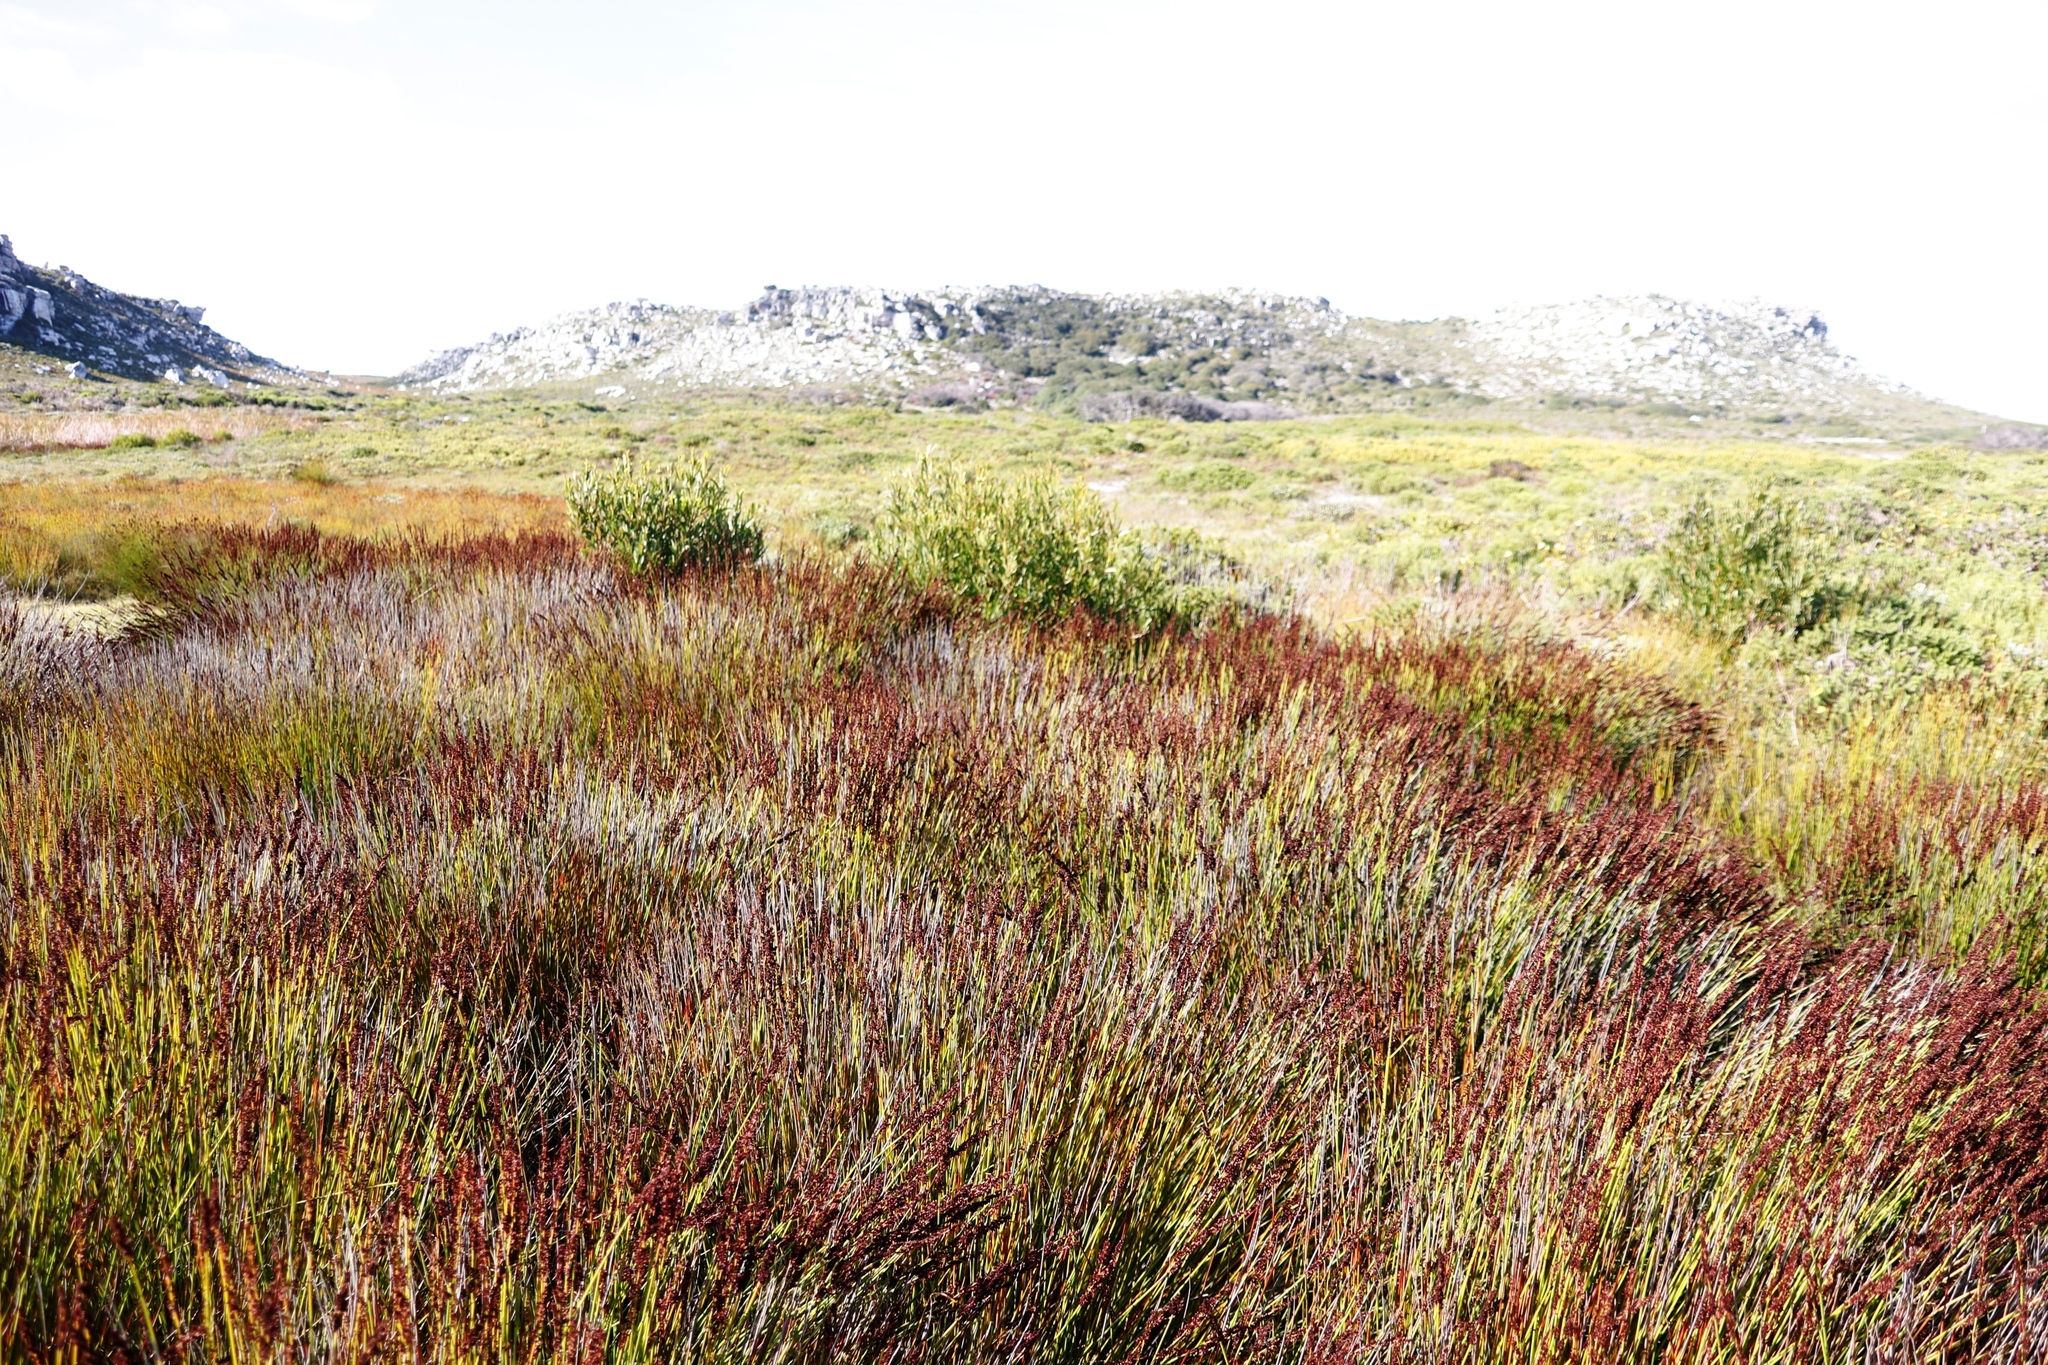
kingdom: Plantae
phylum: Tracheophyta
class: Magnoliopsida
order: Fabales
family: Fabaceae
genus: Acacia
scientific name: Acacia cyclops
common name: Coastal wattle
